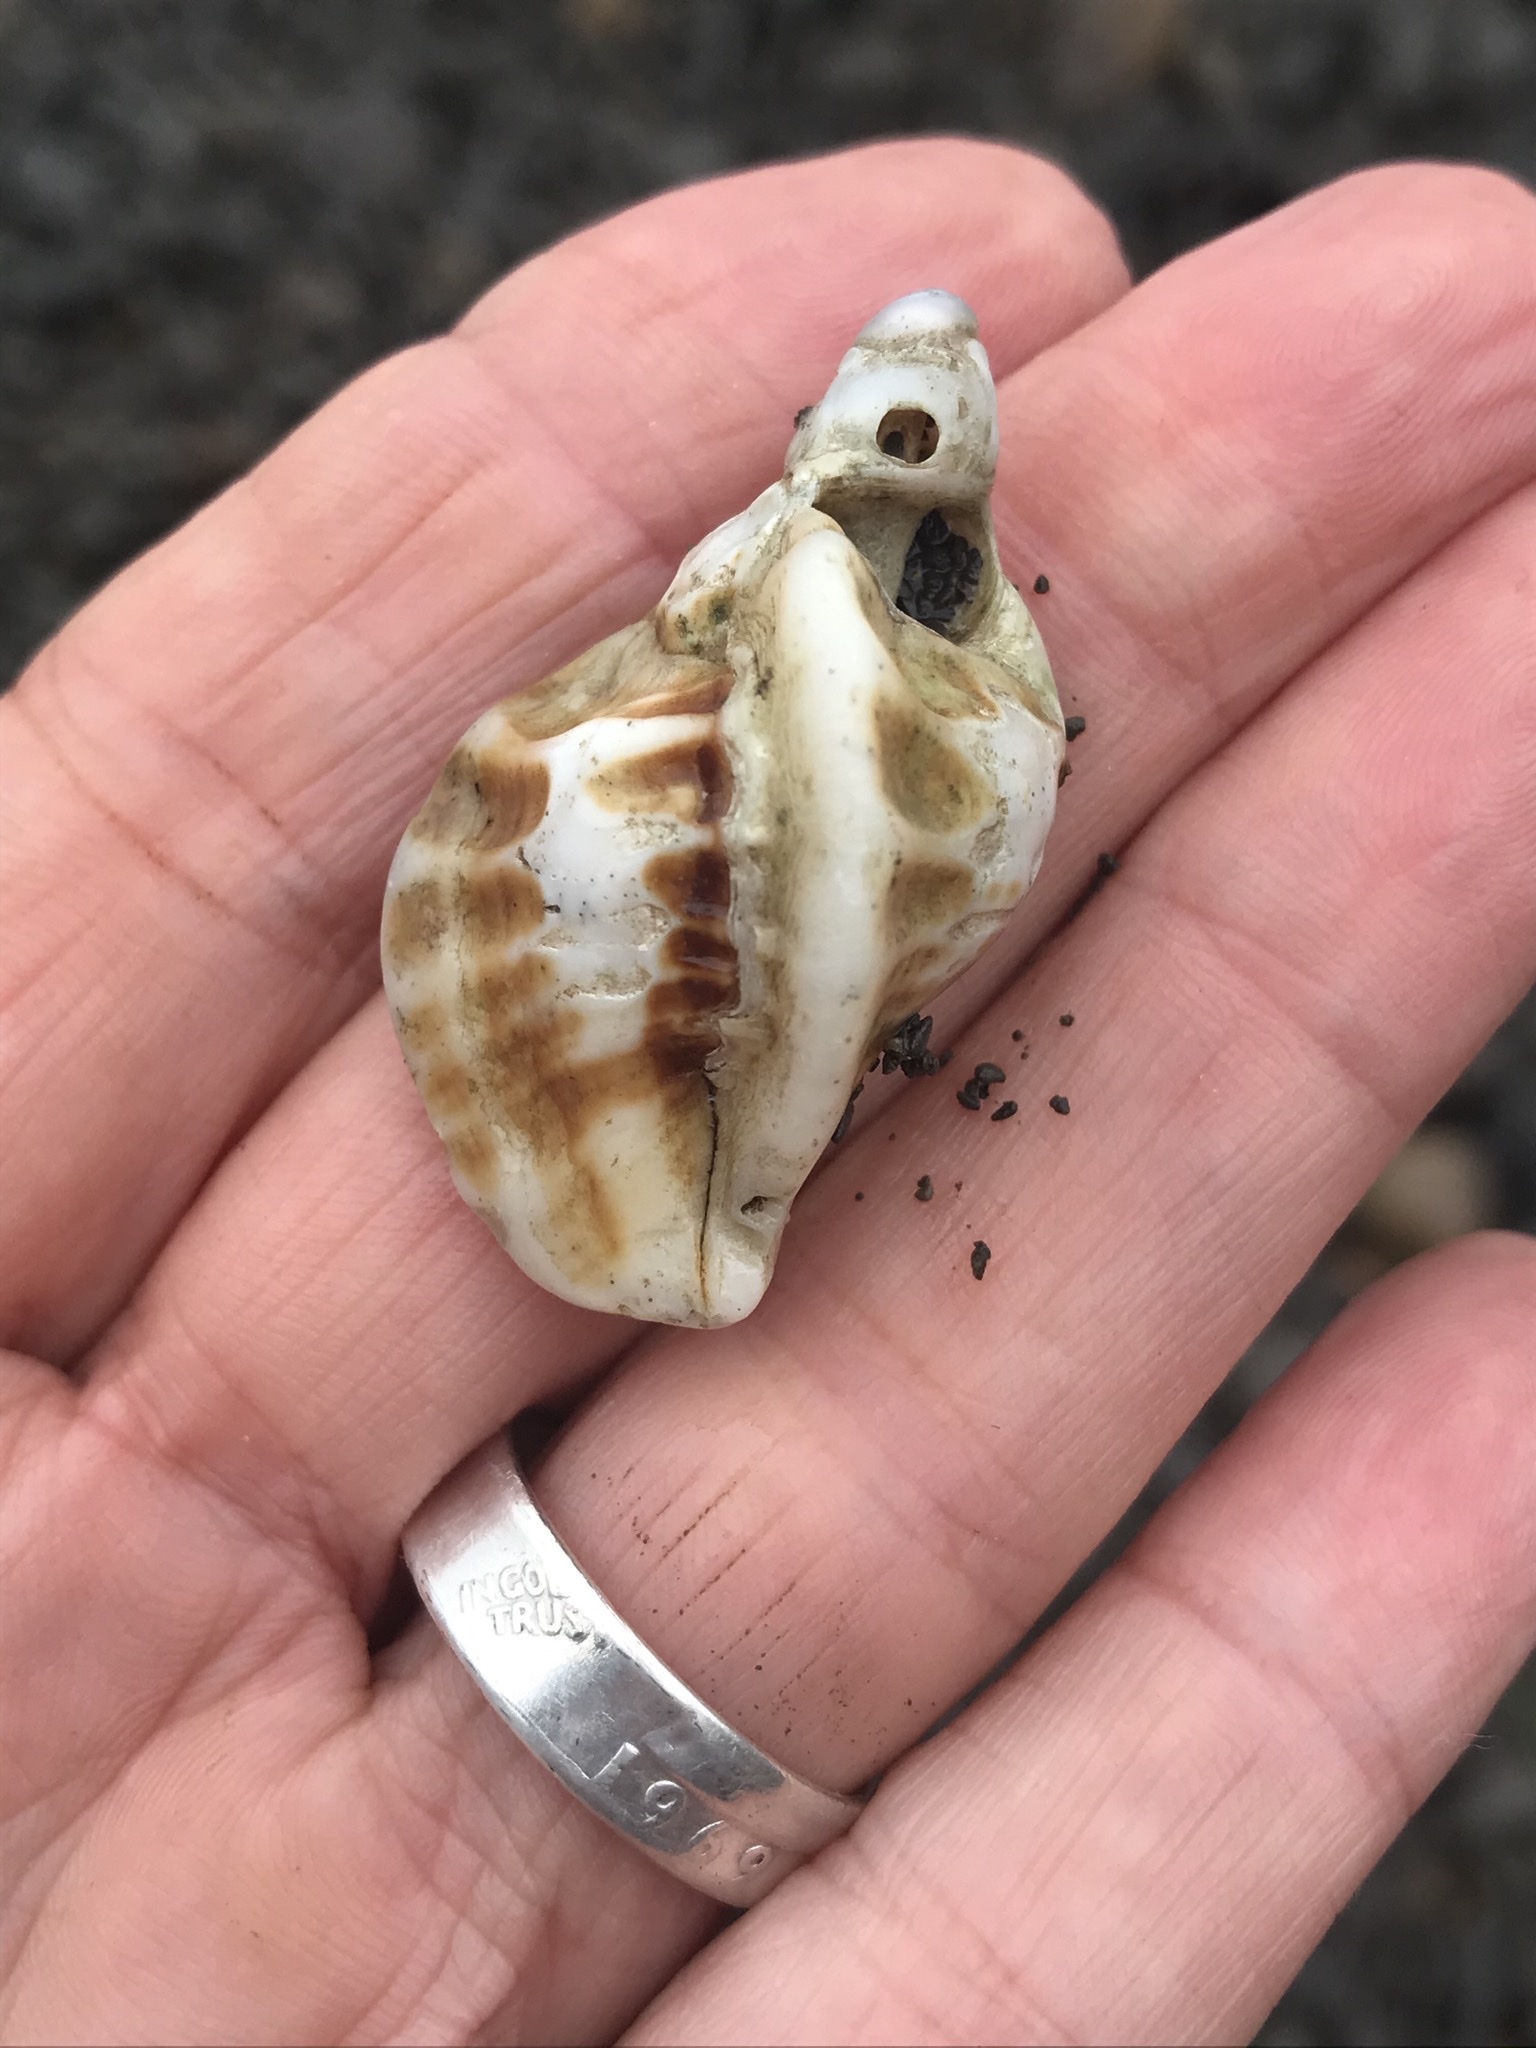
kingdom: Animalia
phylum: Mollusca
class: Gastropoda
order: Neogastropoda
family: Muricidae
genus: Ceratostoma
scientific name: Ceratostoma foliatum
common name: Foliate thorn purpura
